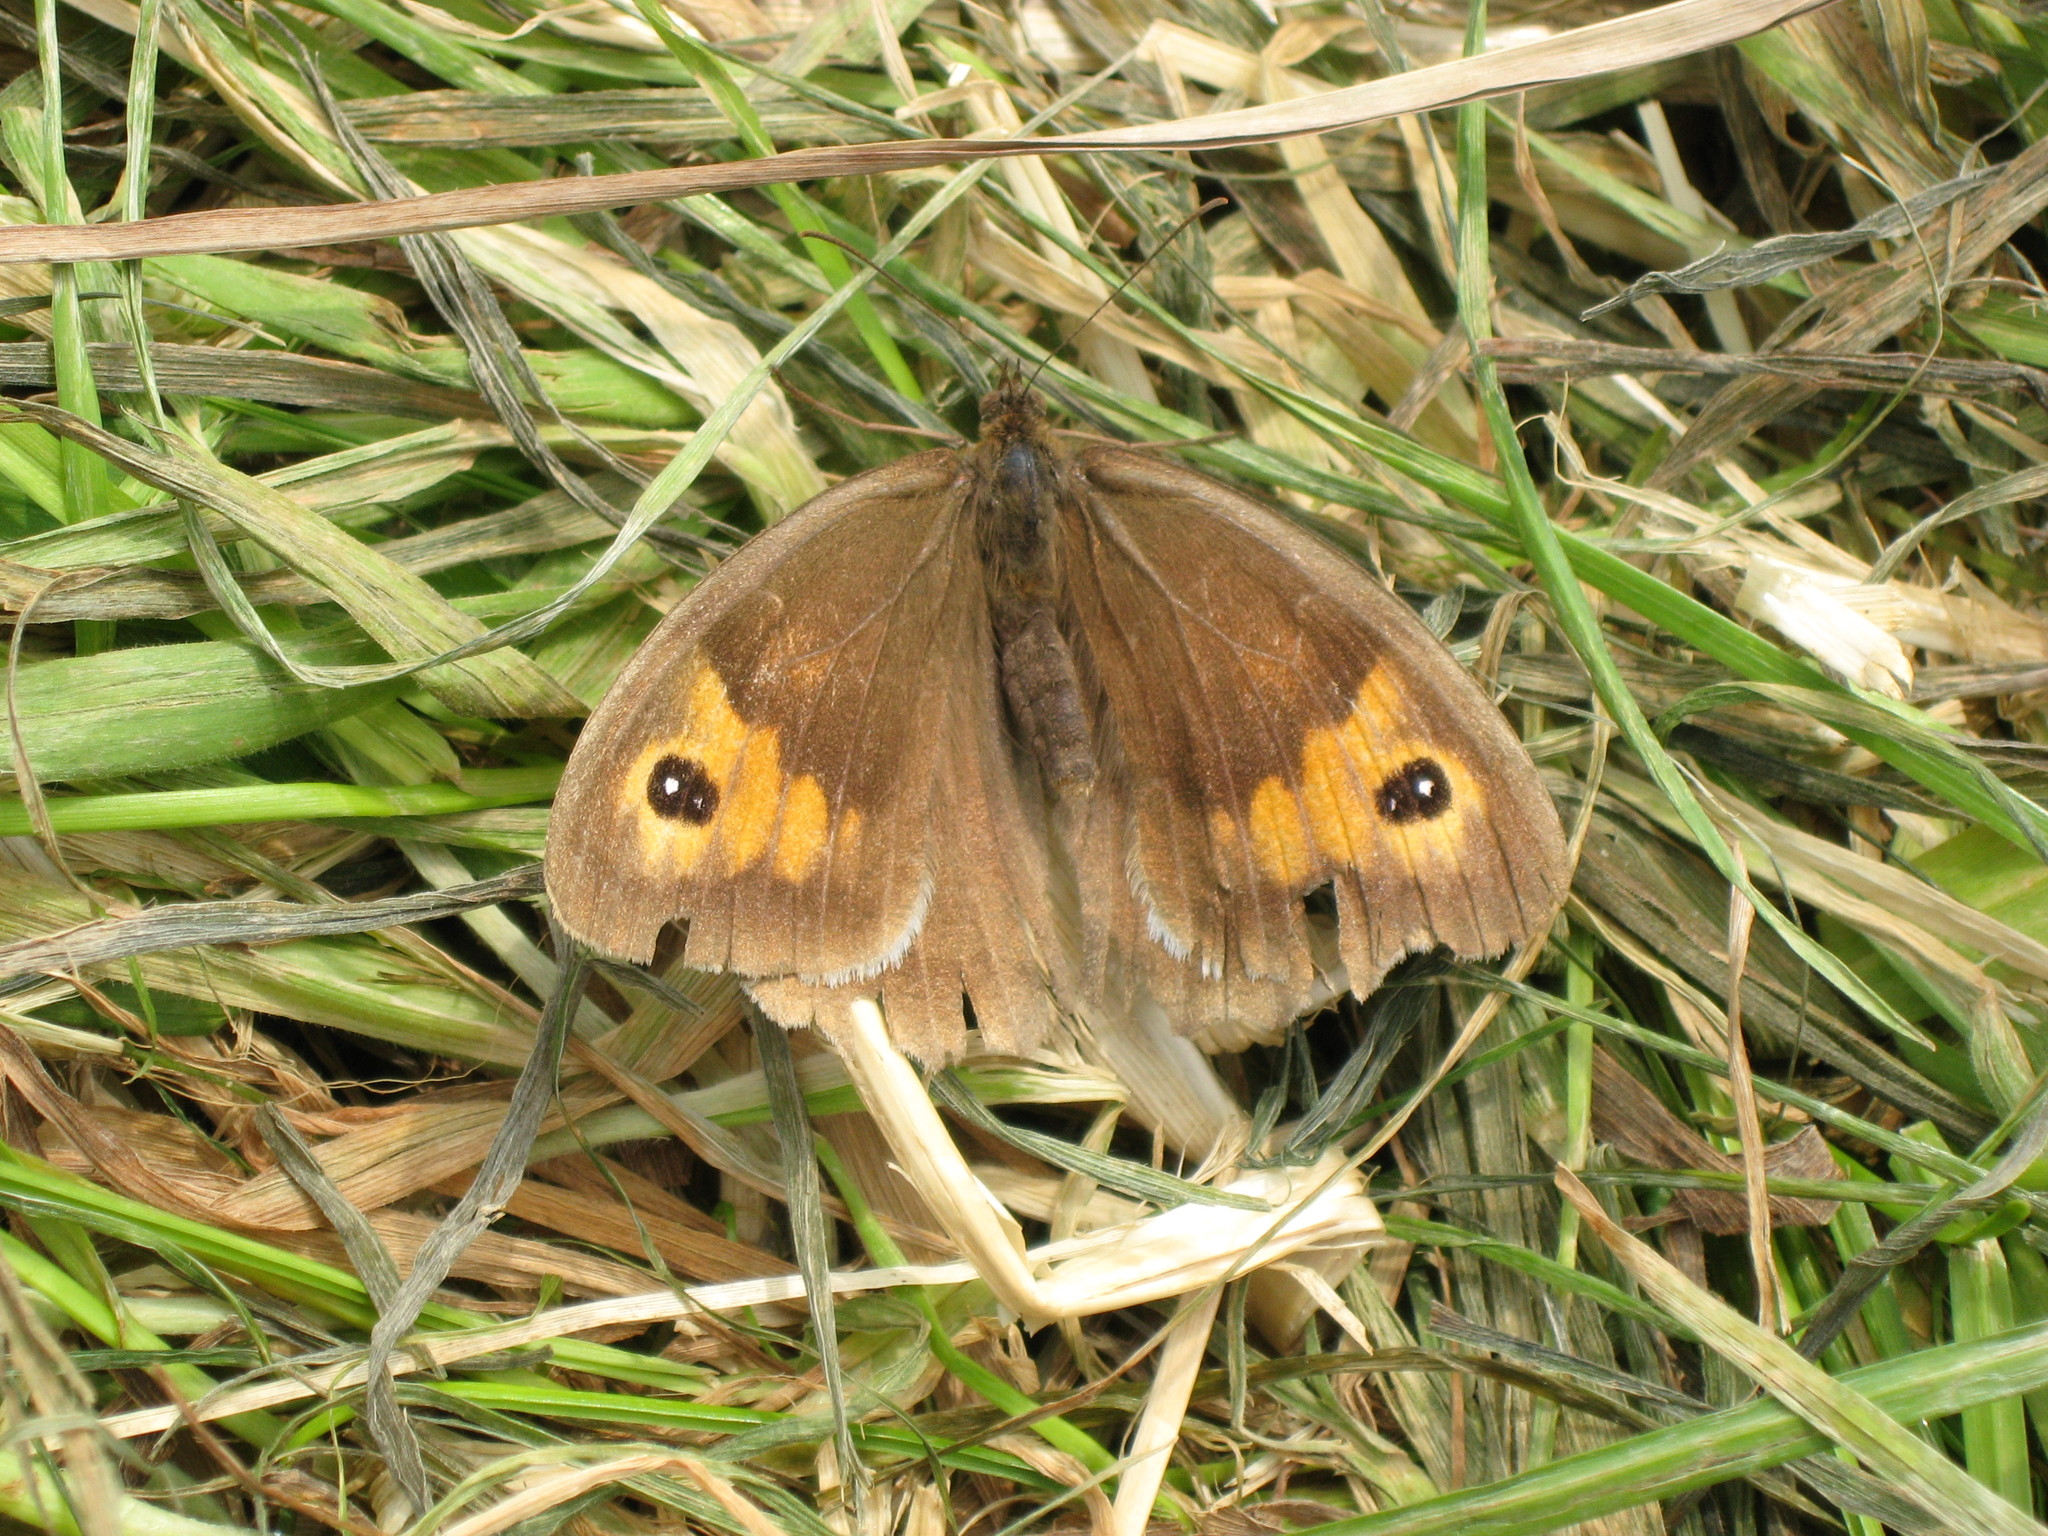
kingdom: Animalia
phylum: Arthropoda
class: Insecta
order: Lepidoptera
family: Nymphalidae
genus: Maniola
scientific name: Maniola jurtina
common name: Meadow brown
